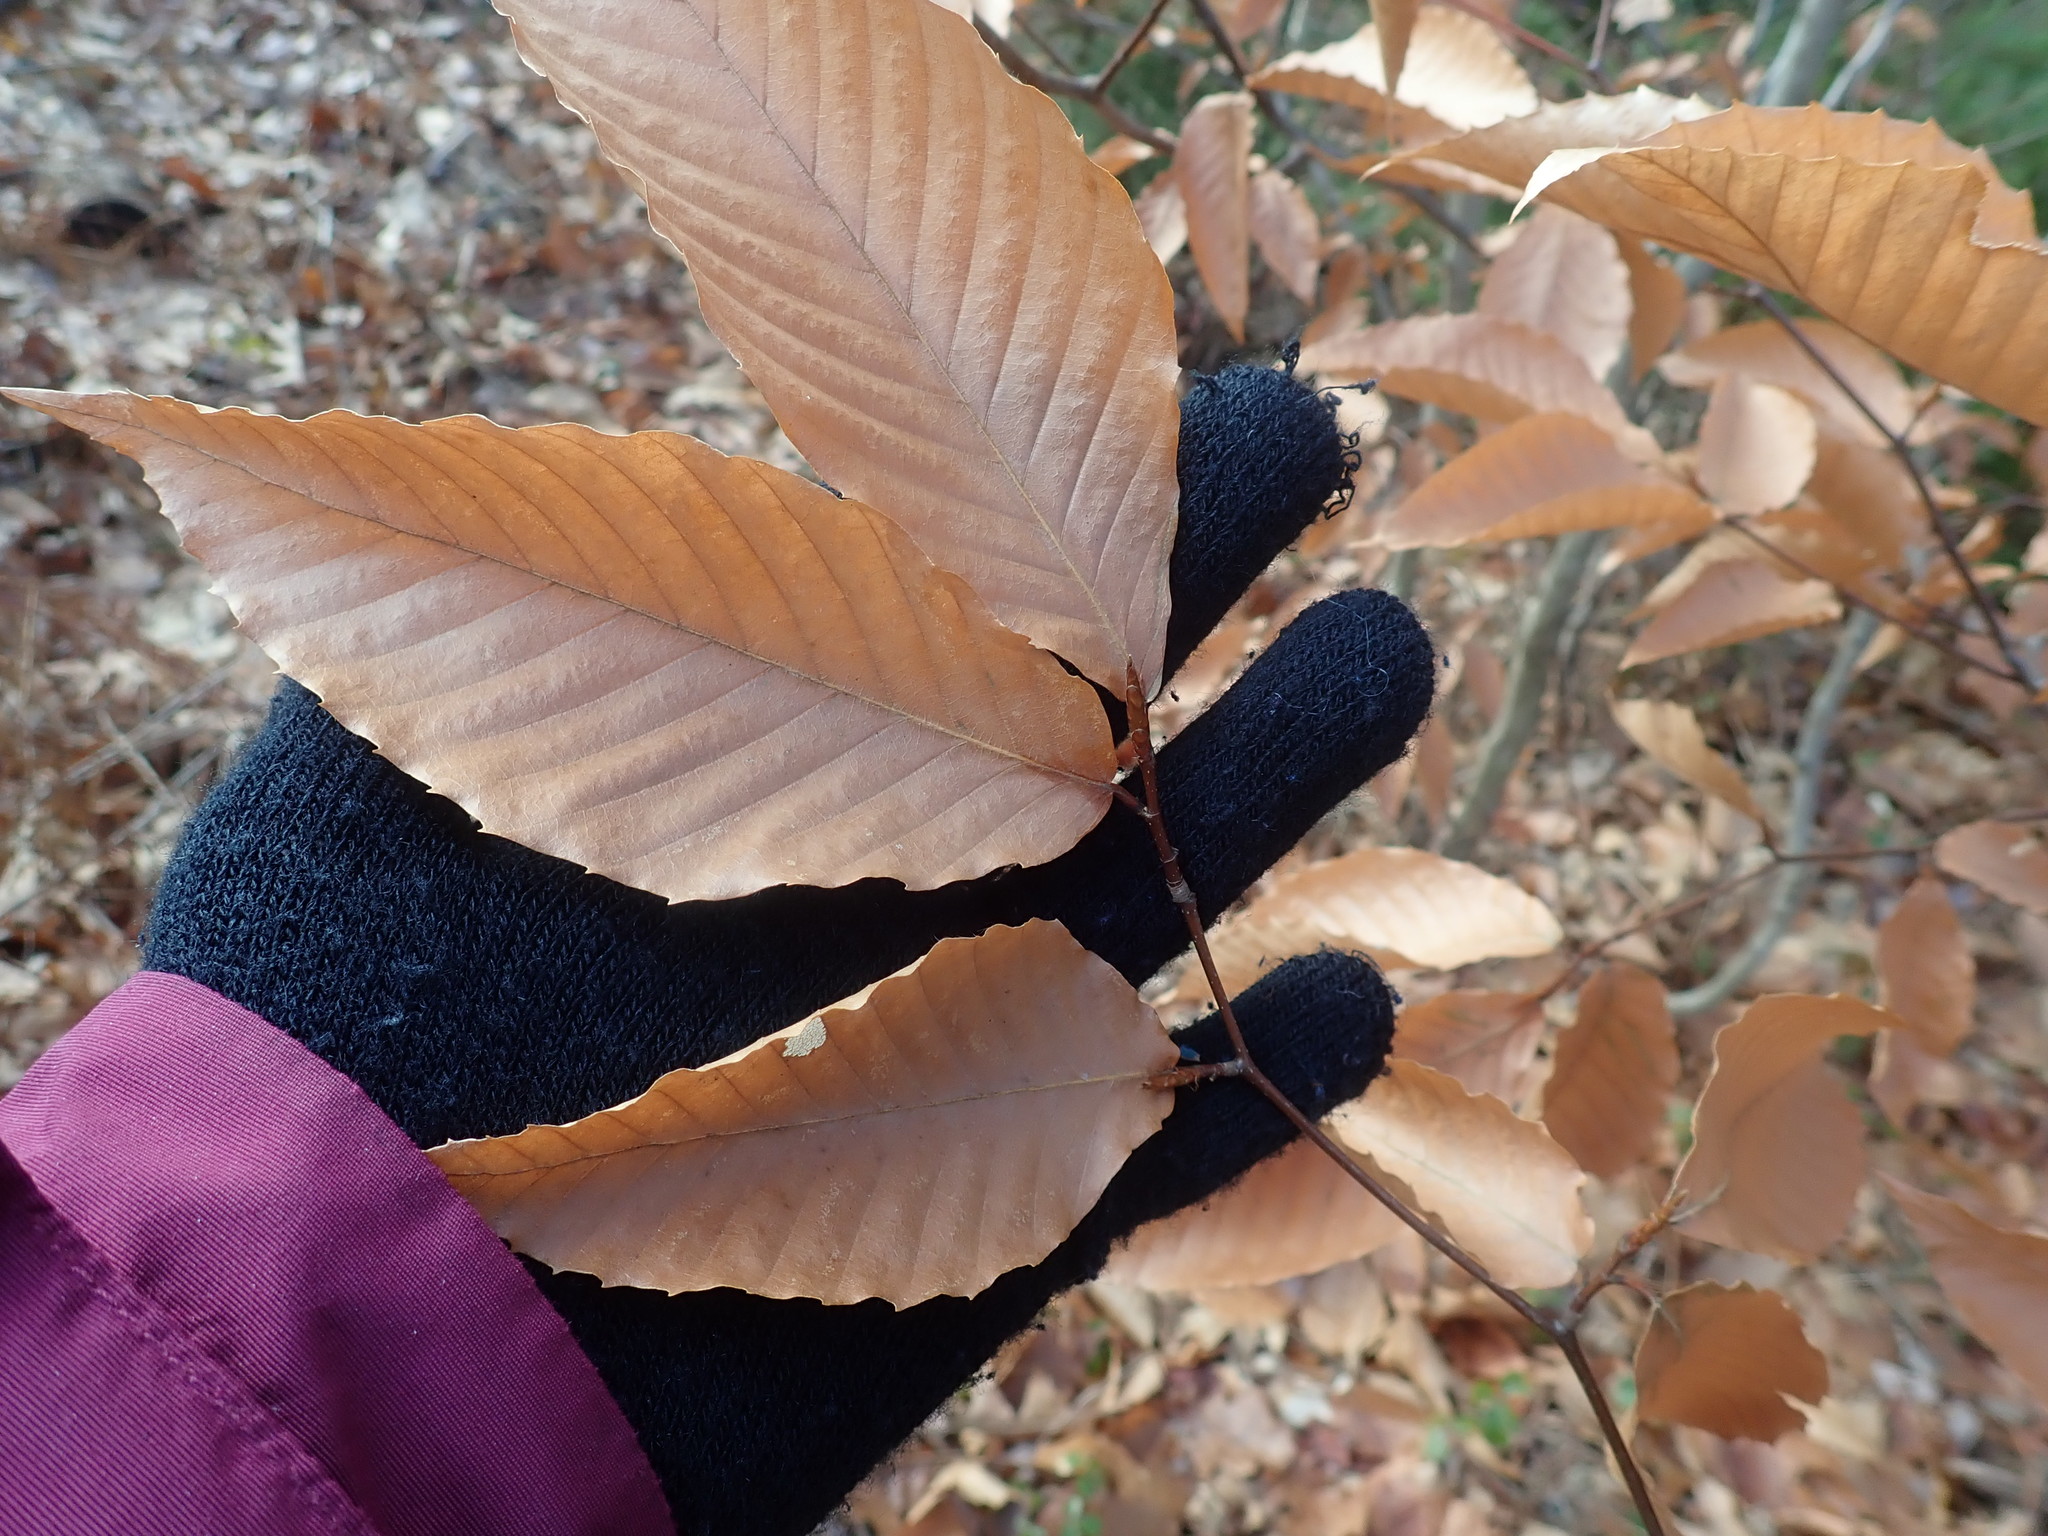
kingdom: Plantae
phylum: Tracheophyta
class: Magnoliopsida
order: Fagales
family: Fagaceae
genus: Fagus
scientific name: Fagus grandifolia
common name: American beech
